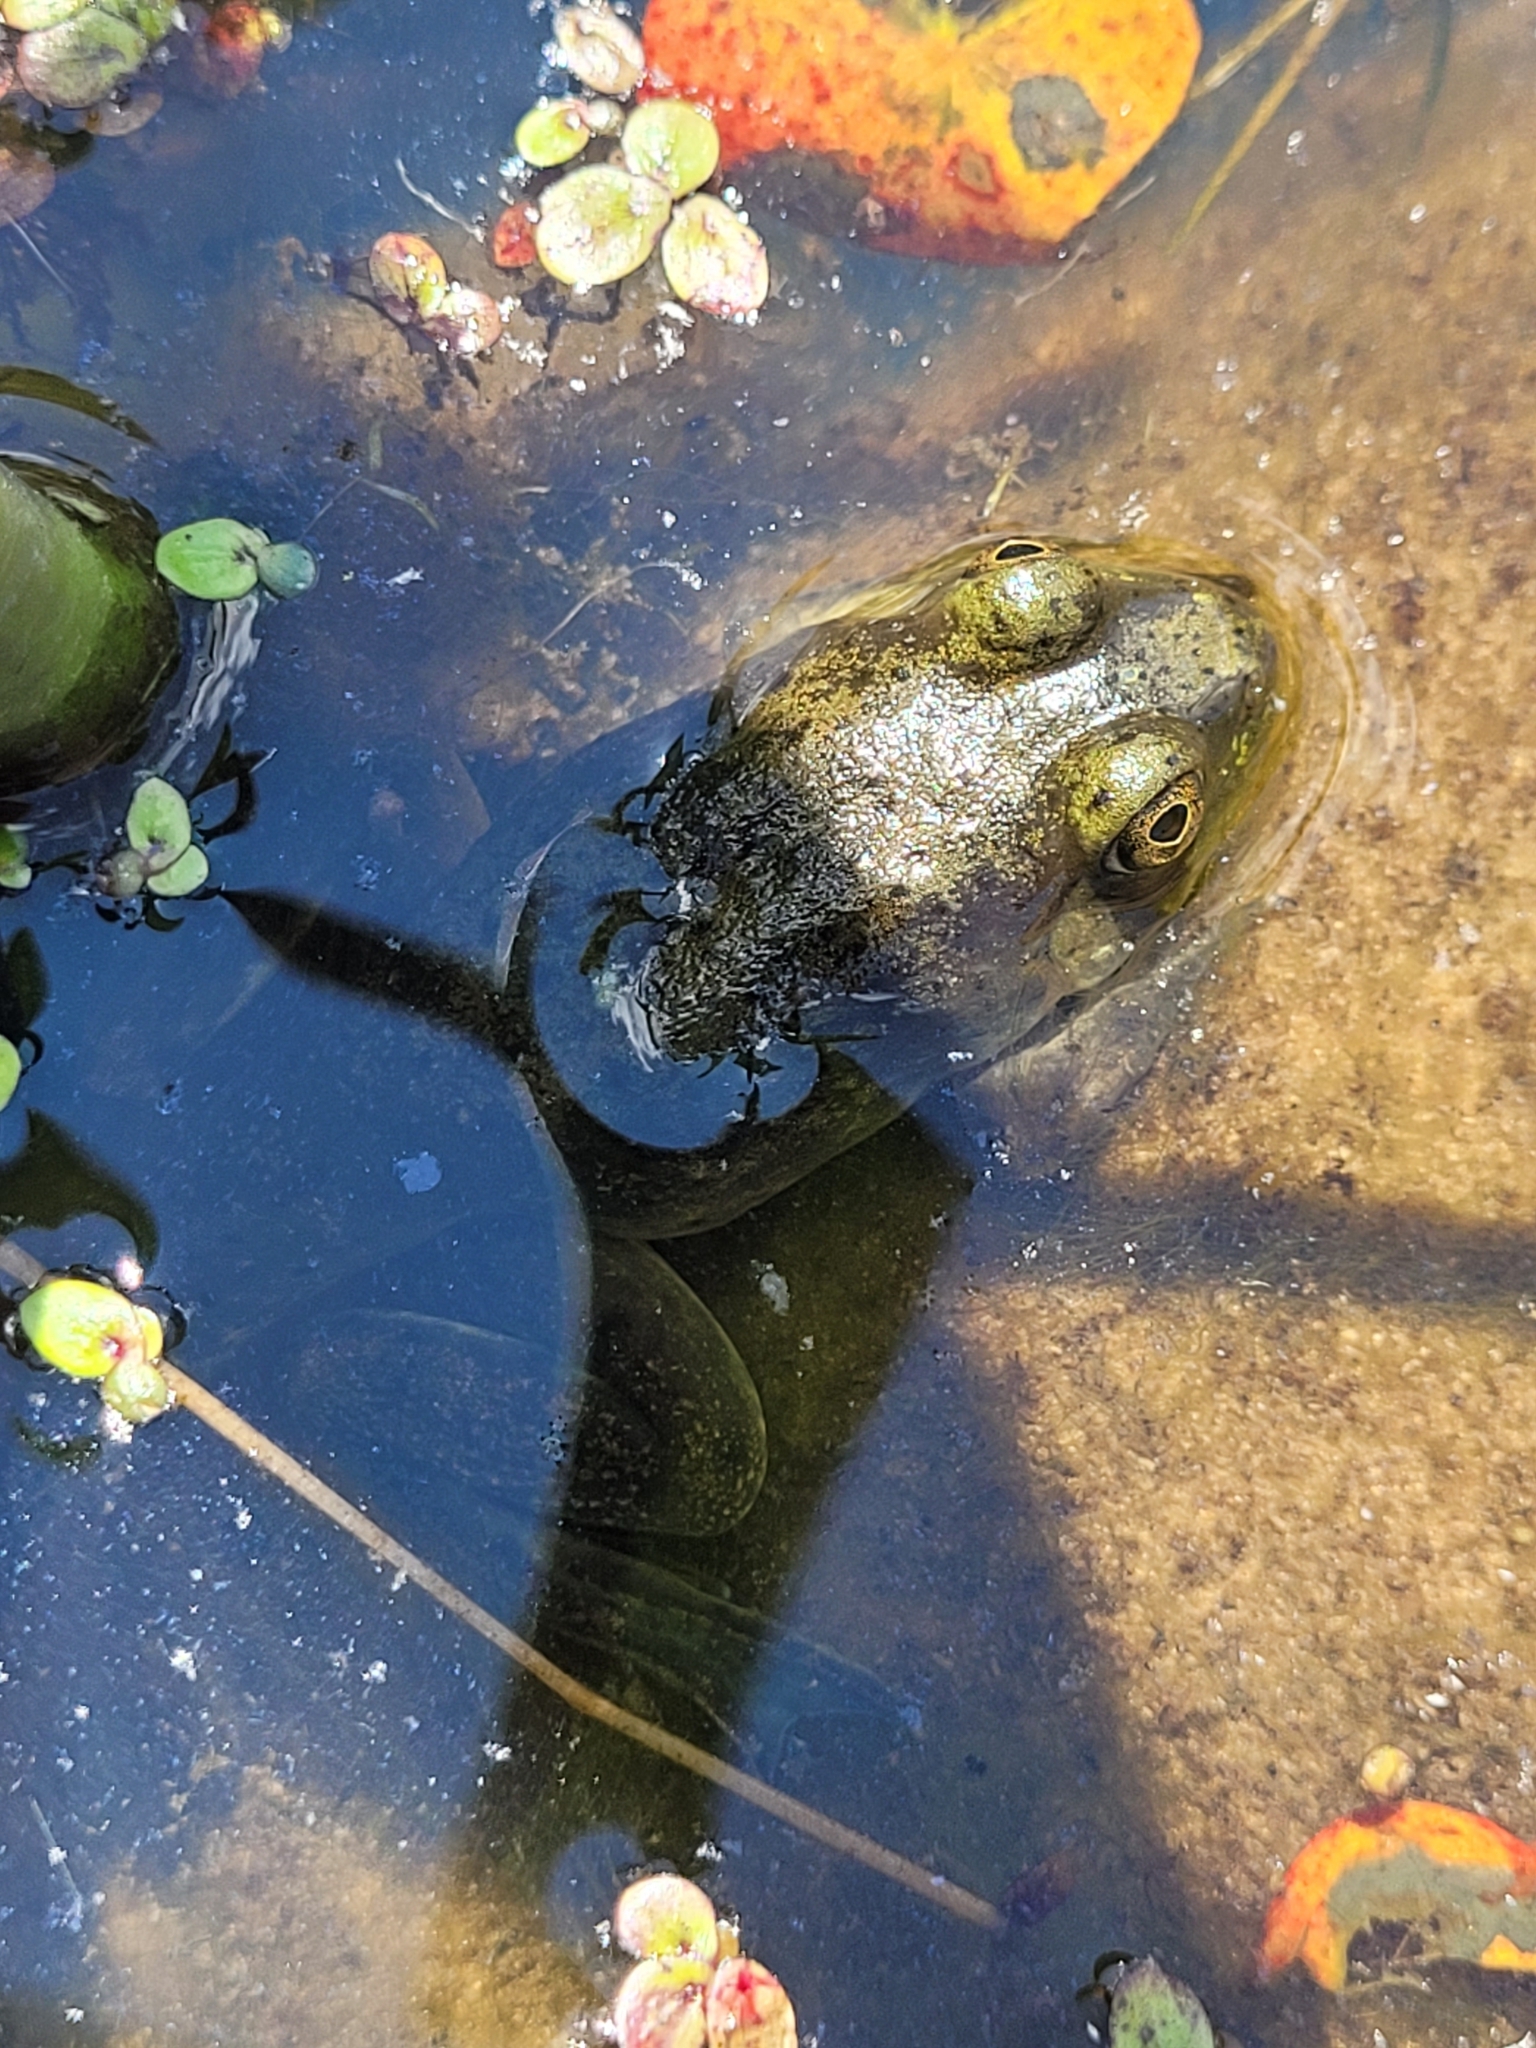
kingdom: Animalia
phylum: Chordata
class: Amphibia
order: Anura
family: Ranidae
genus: Lithobates
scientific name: Lithobates catesbeianus
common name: American bullfrog
